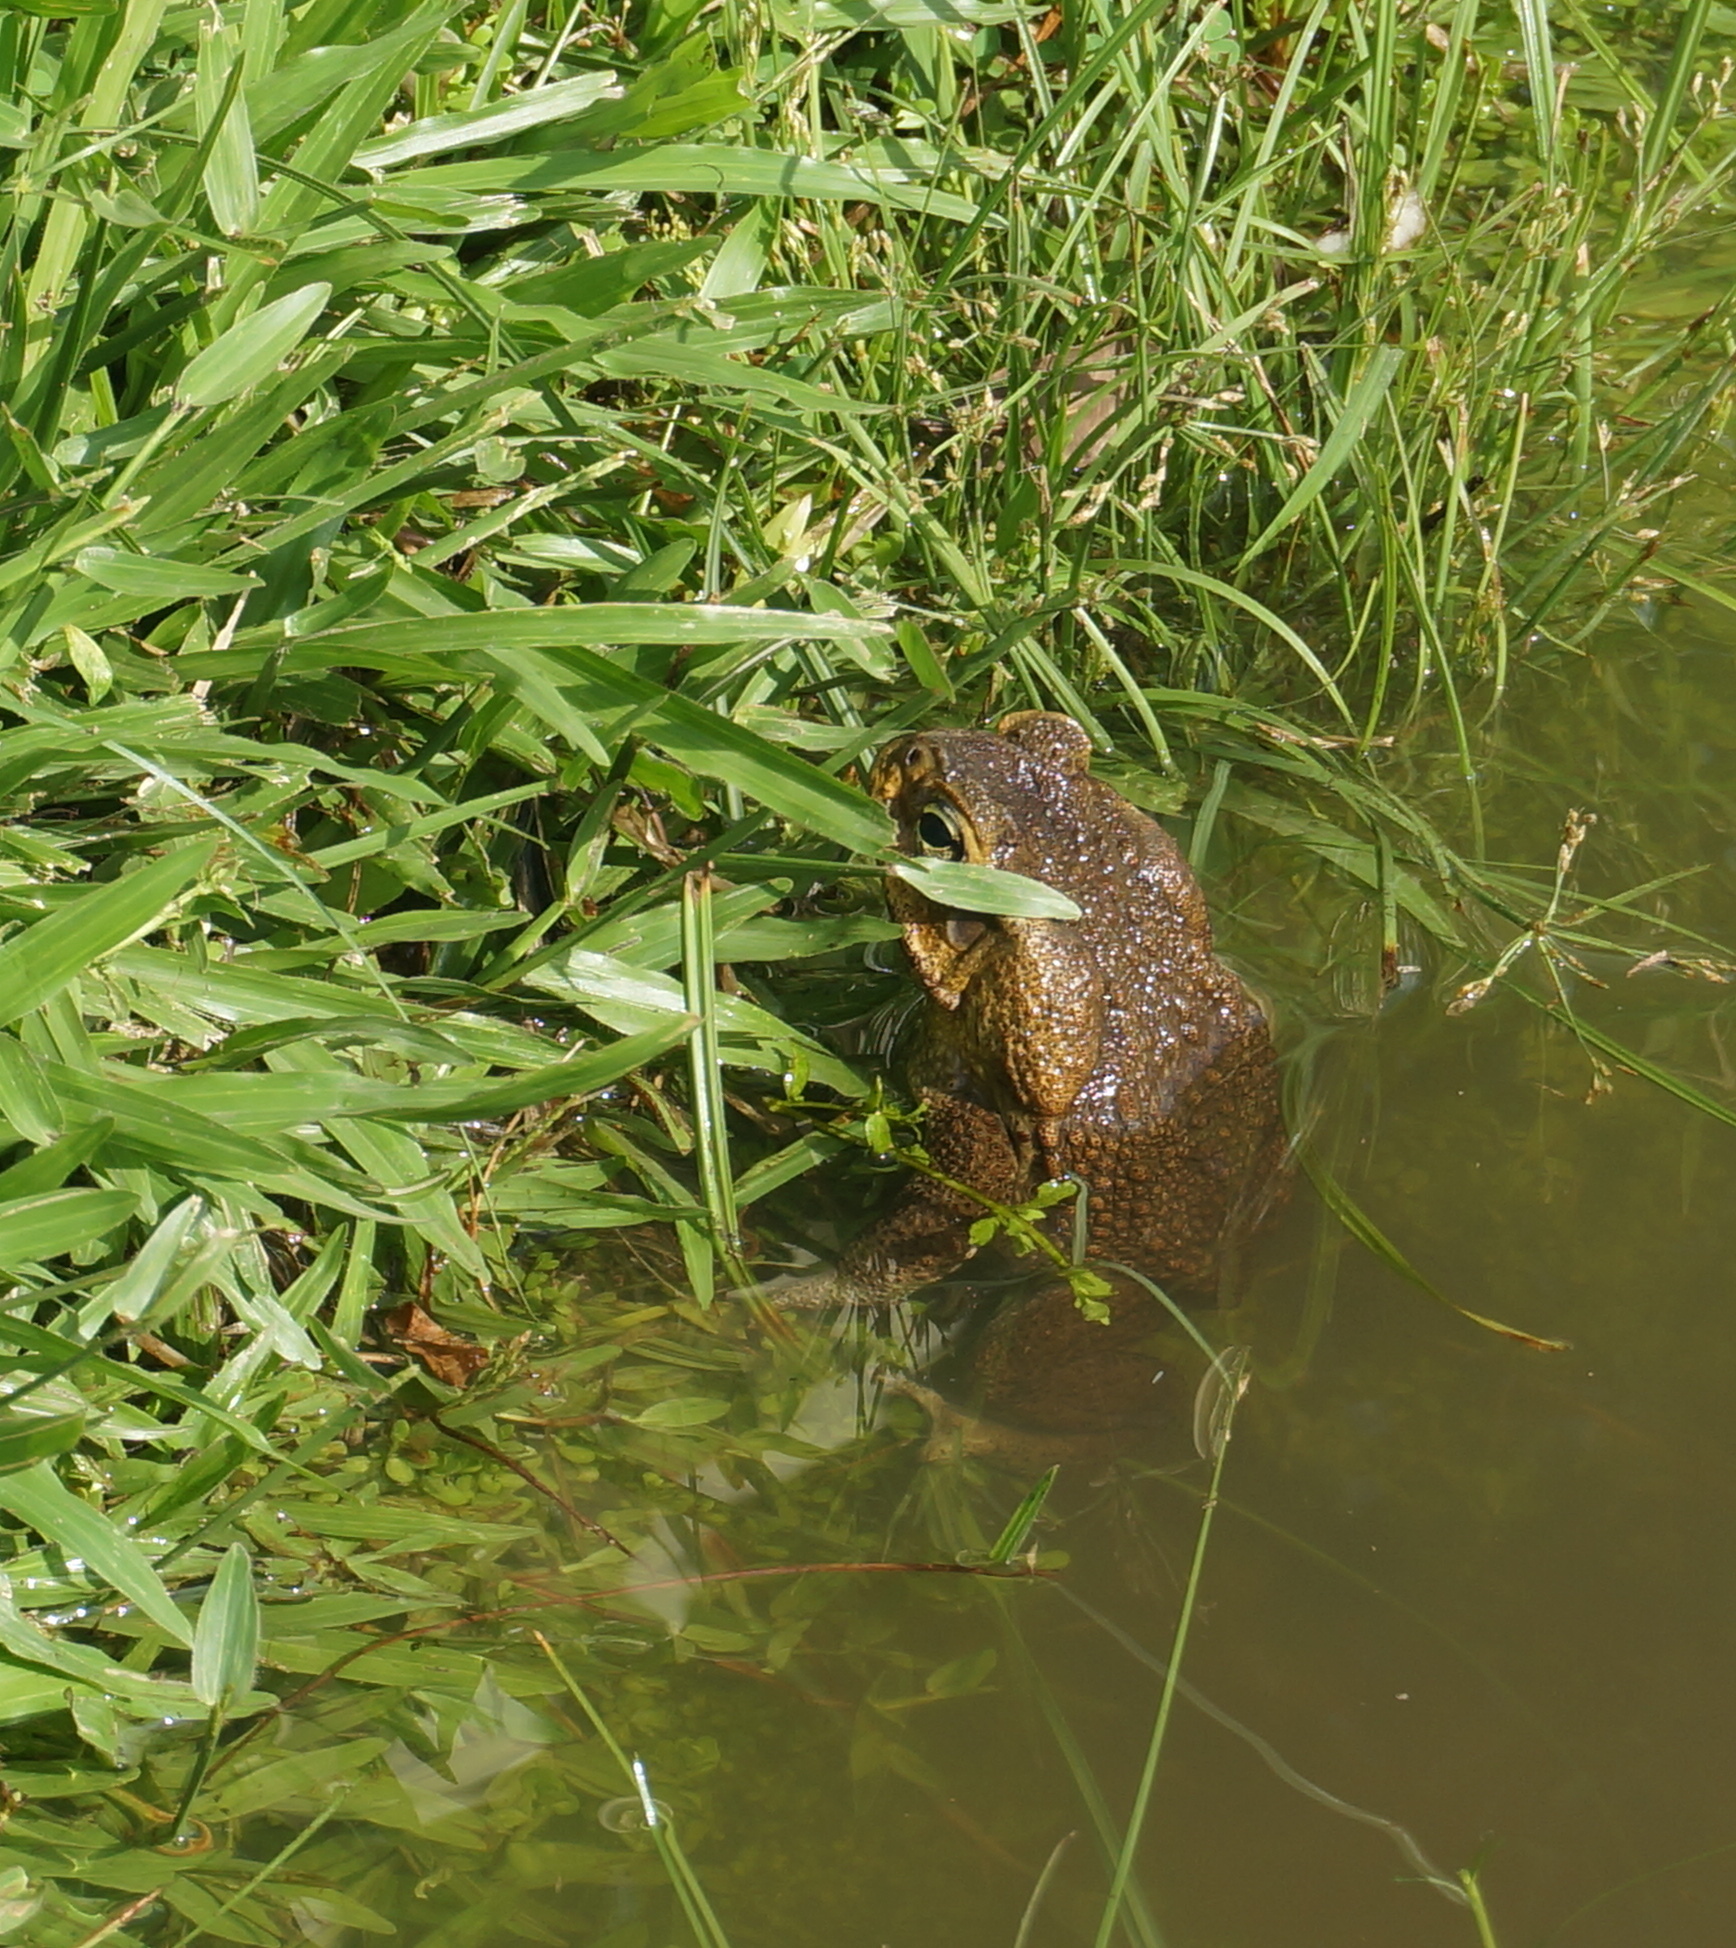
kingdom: Animalia
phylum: Chordata
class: Amphibia
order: Anura
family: Bufonidae
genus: Rhinella
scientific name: Rhinella marina
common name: Cane toad
